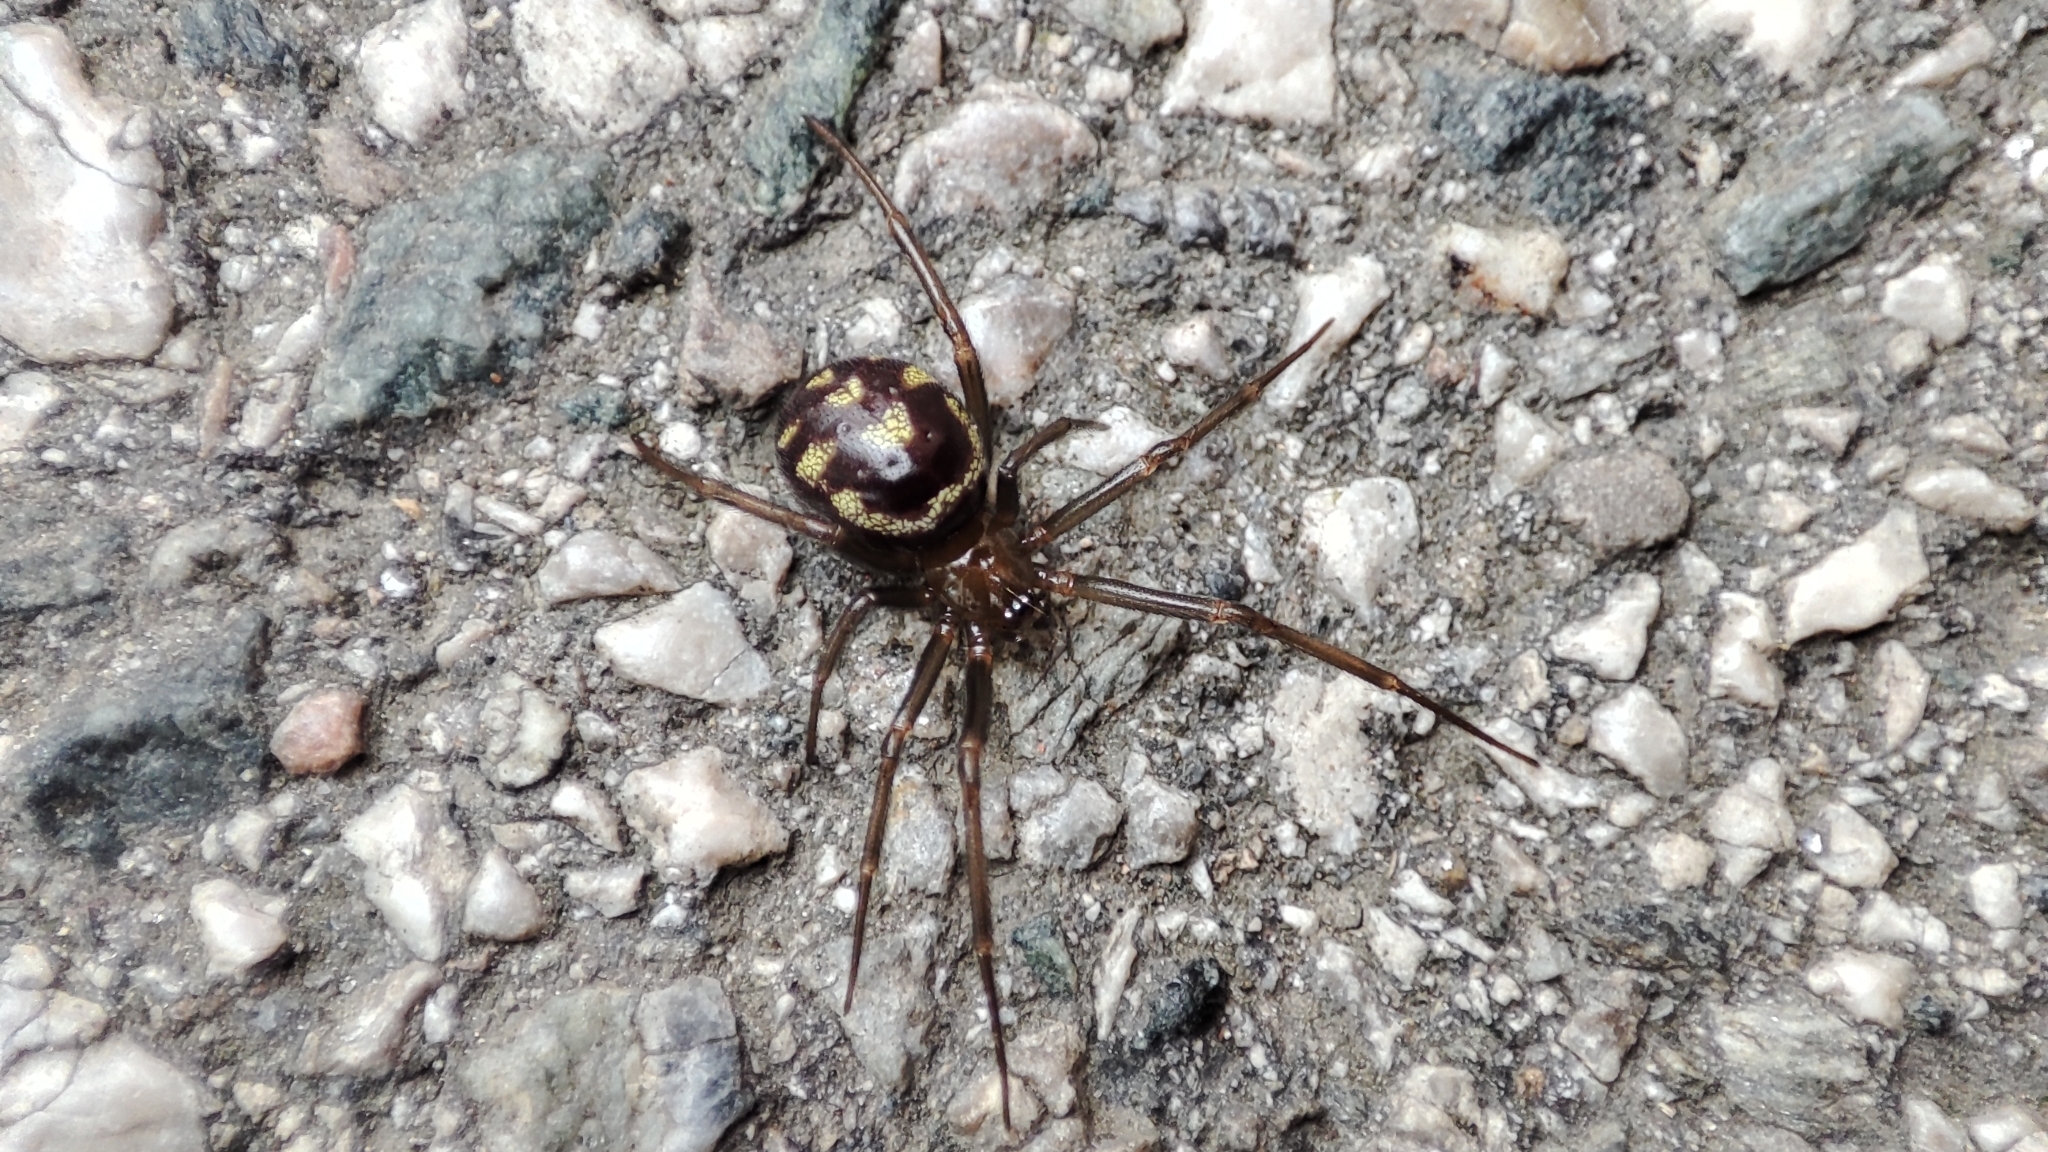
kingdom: Animalia
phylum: Arthropoda
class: Arachnida
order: Araneae
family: Theridiidae
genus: Steatoda
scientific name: Steatoda grossa
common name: False black widow
